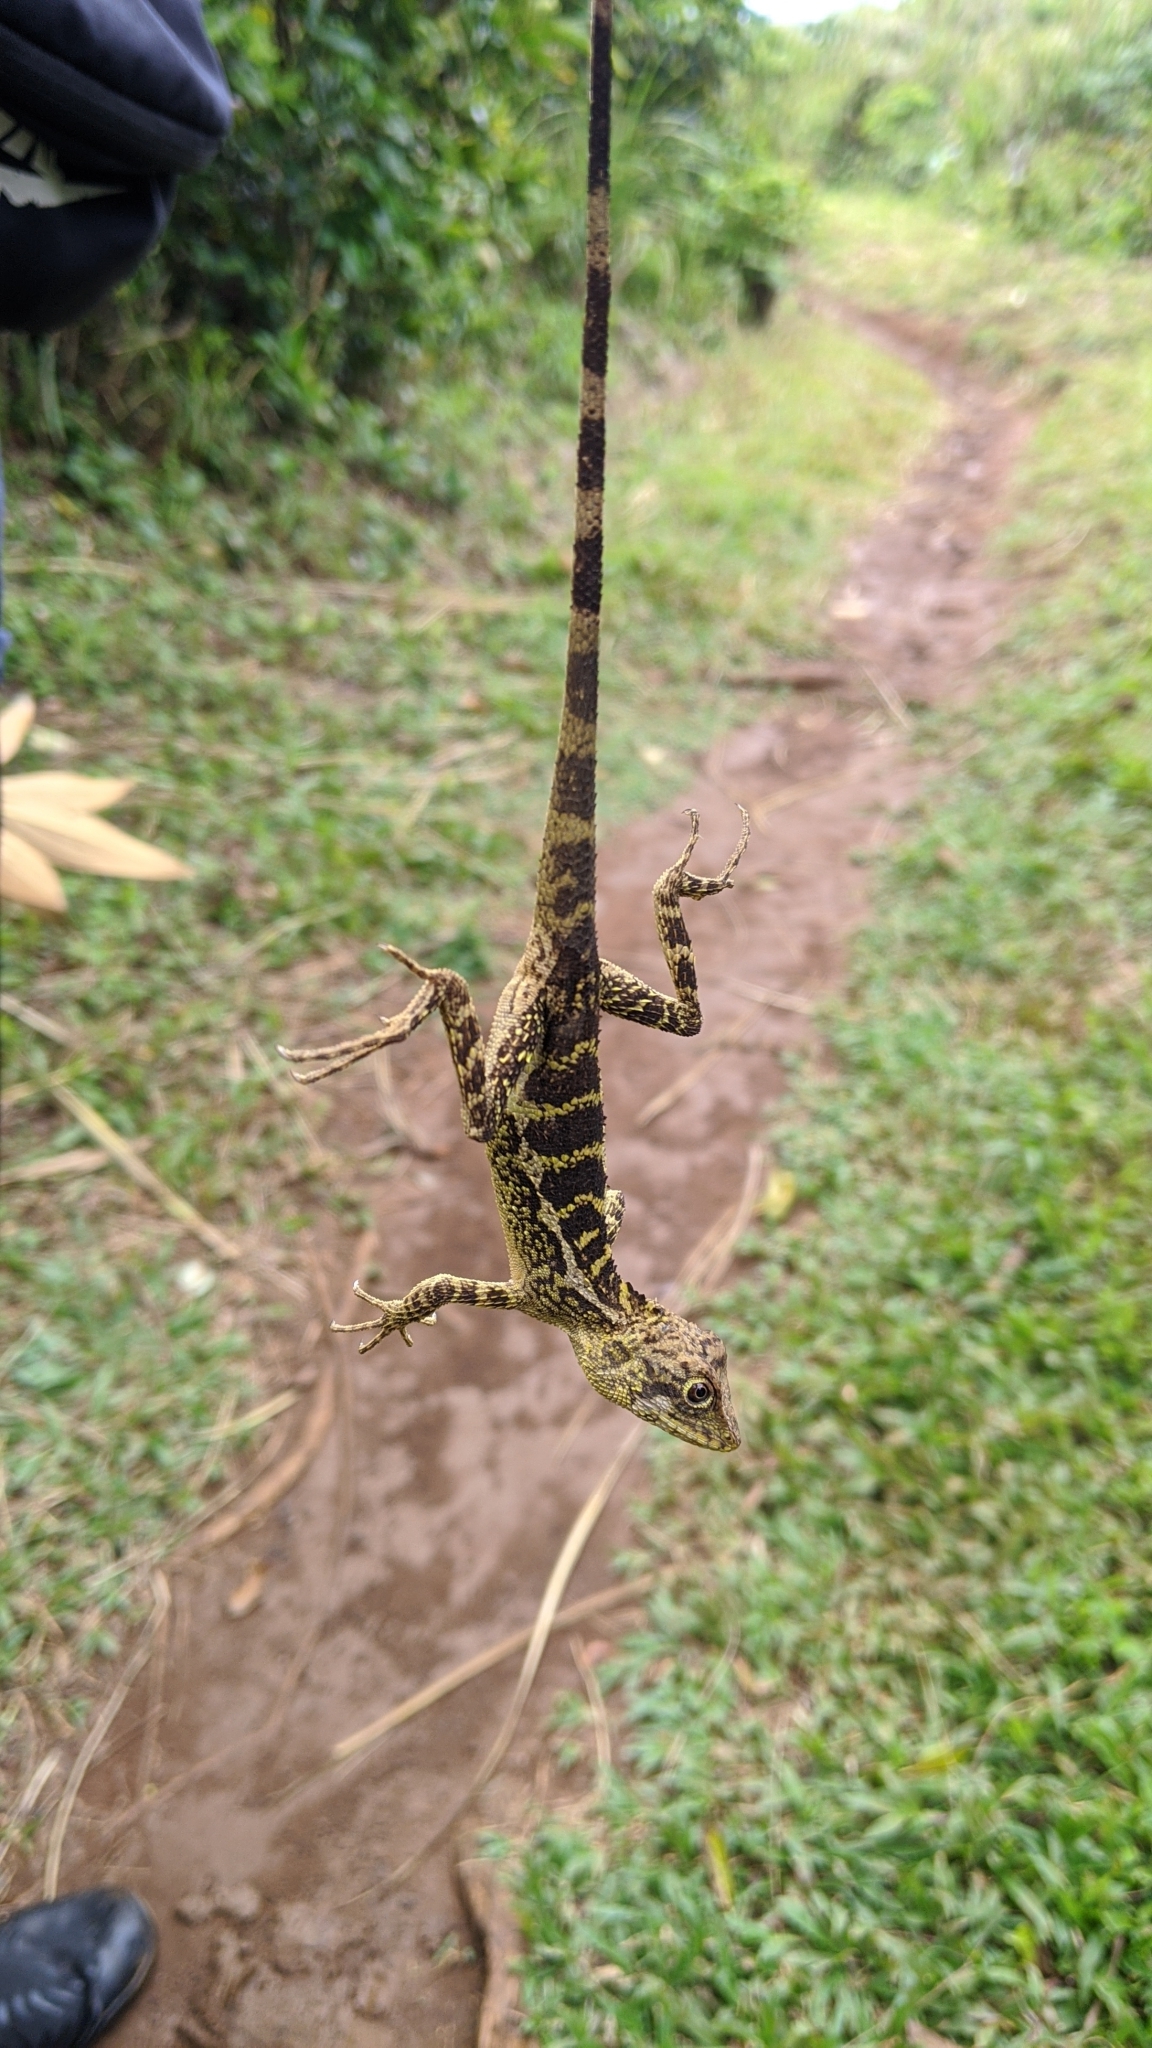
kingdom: Animalia
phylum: Chordata
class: Squamata
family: Agamidae
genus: Diploderma
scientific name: Diploderma swinhonis
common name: Taiwan japalure
